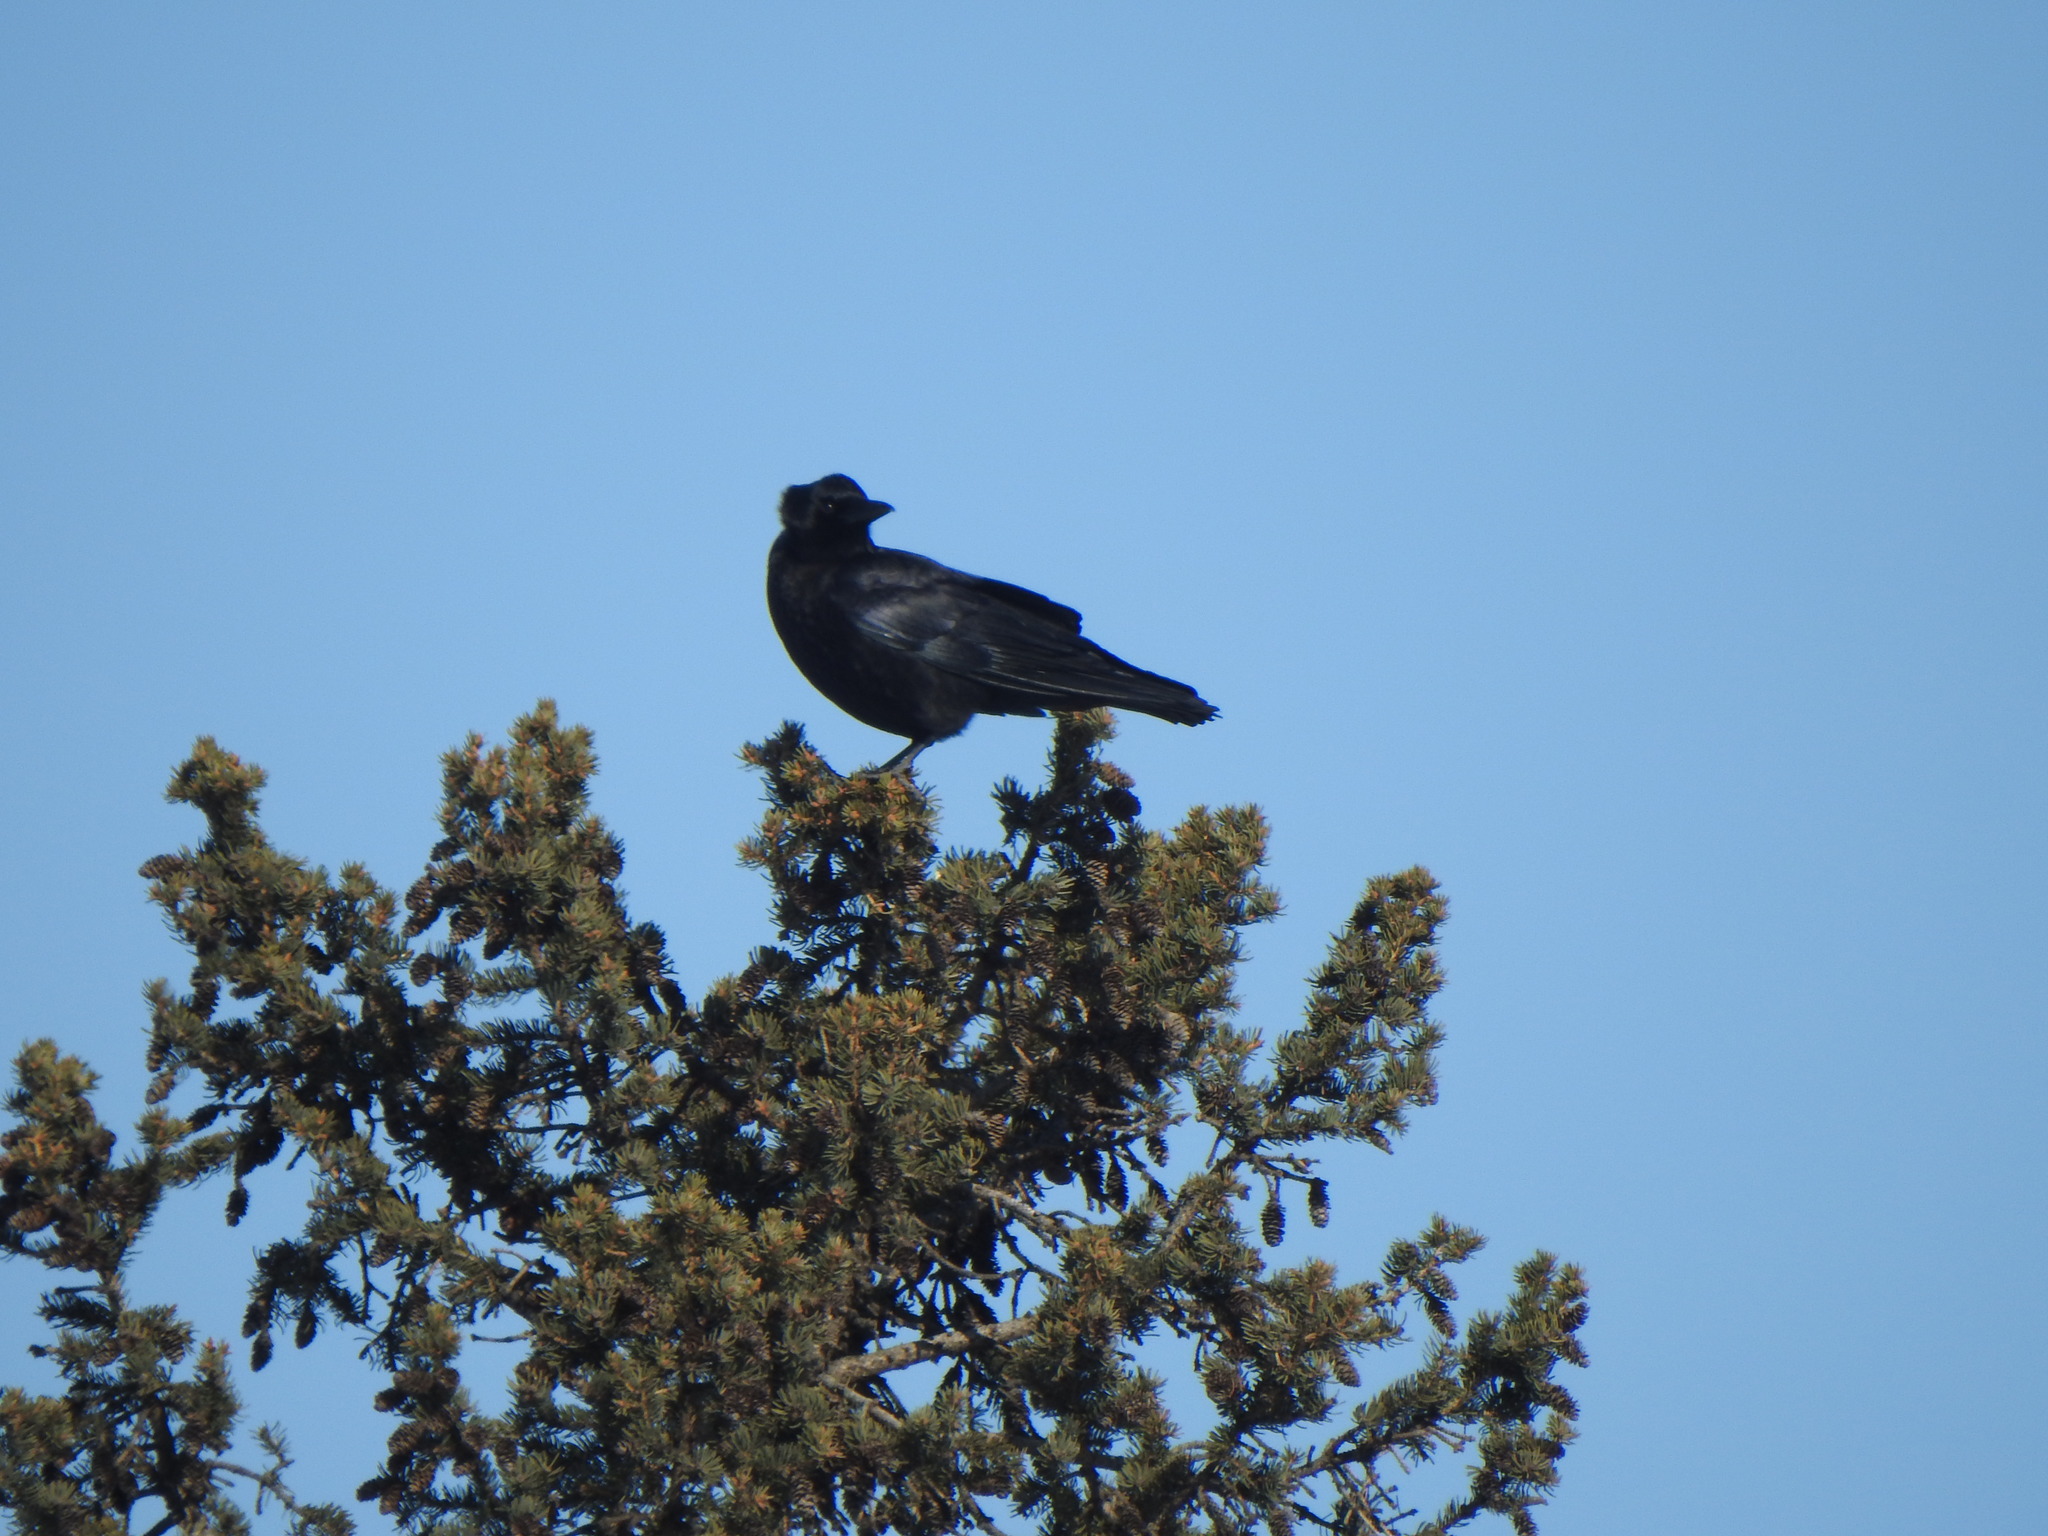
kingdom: Animalia
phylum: Chordata
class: Aves
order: Passeriformes
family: Corvidae
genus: Corvus
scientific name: Corvus brachyrhynchos
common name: American crow
